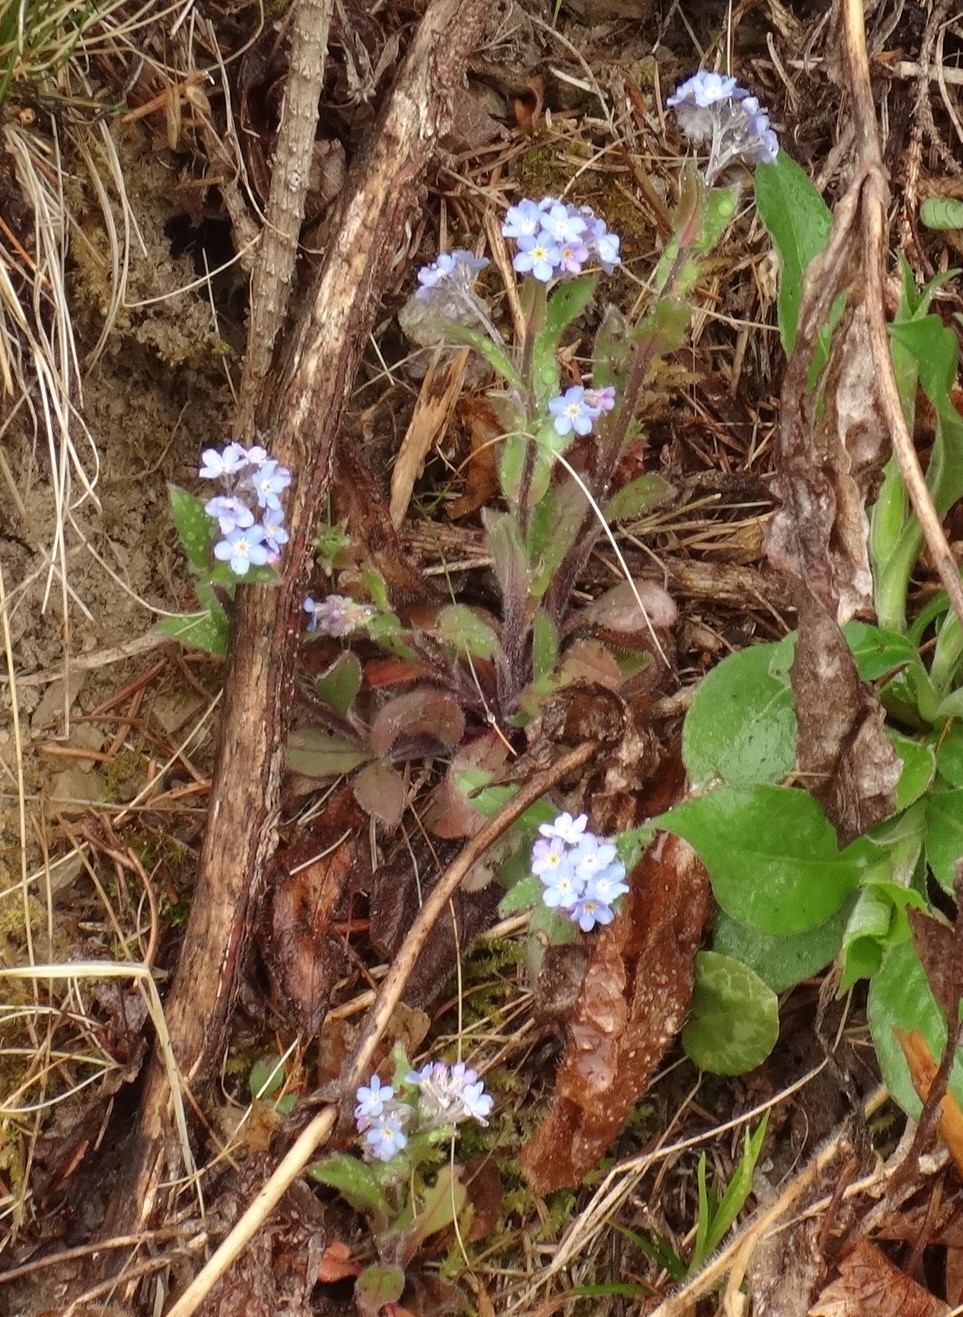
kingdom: Plantae
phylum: Tracheophyta
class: Magnoliopsida
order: Boraginales
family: Boraginaceae
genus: Myosotis
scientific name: Myosotis sylvatica
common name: Wood forget-me-not
